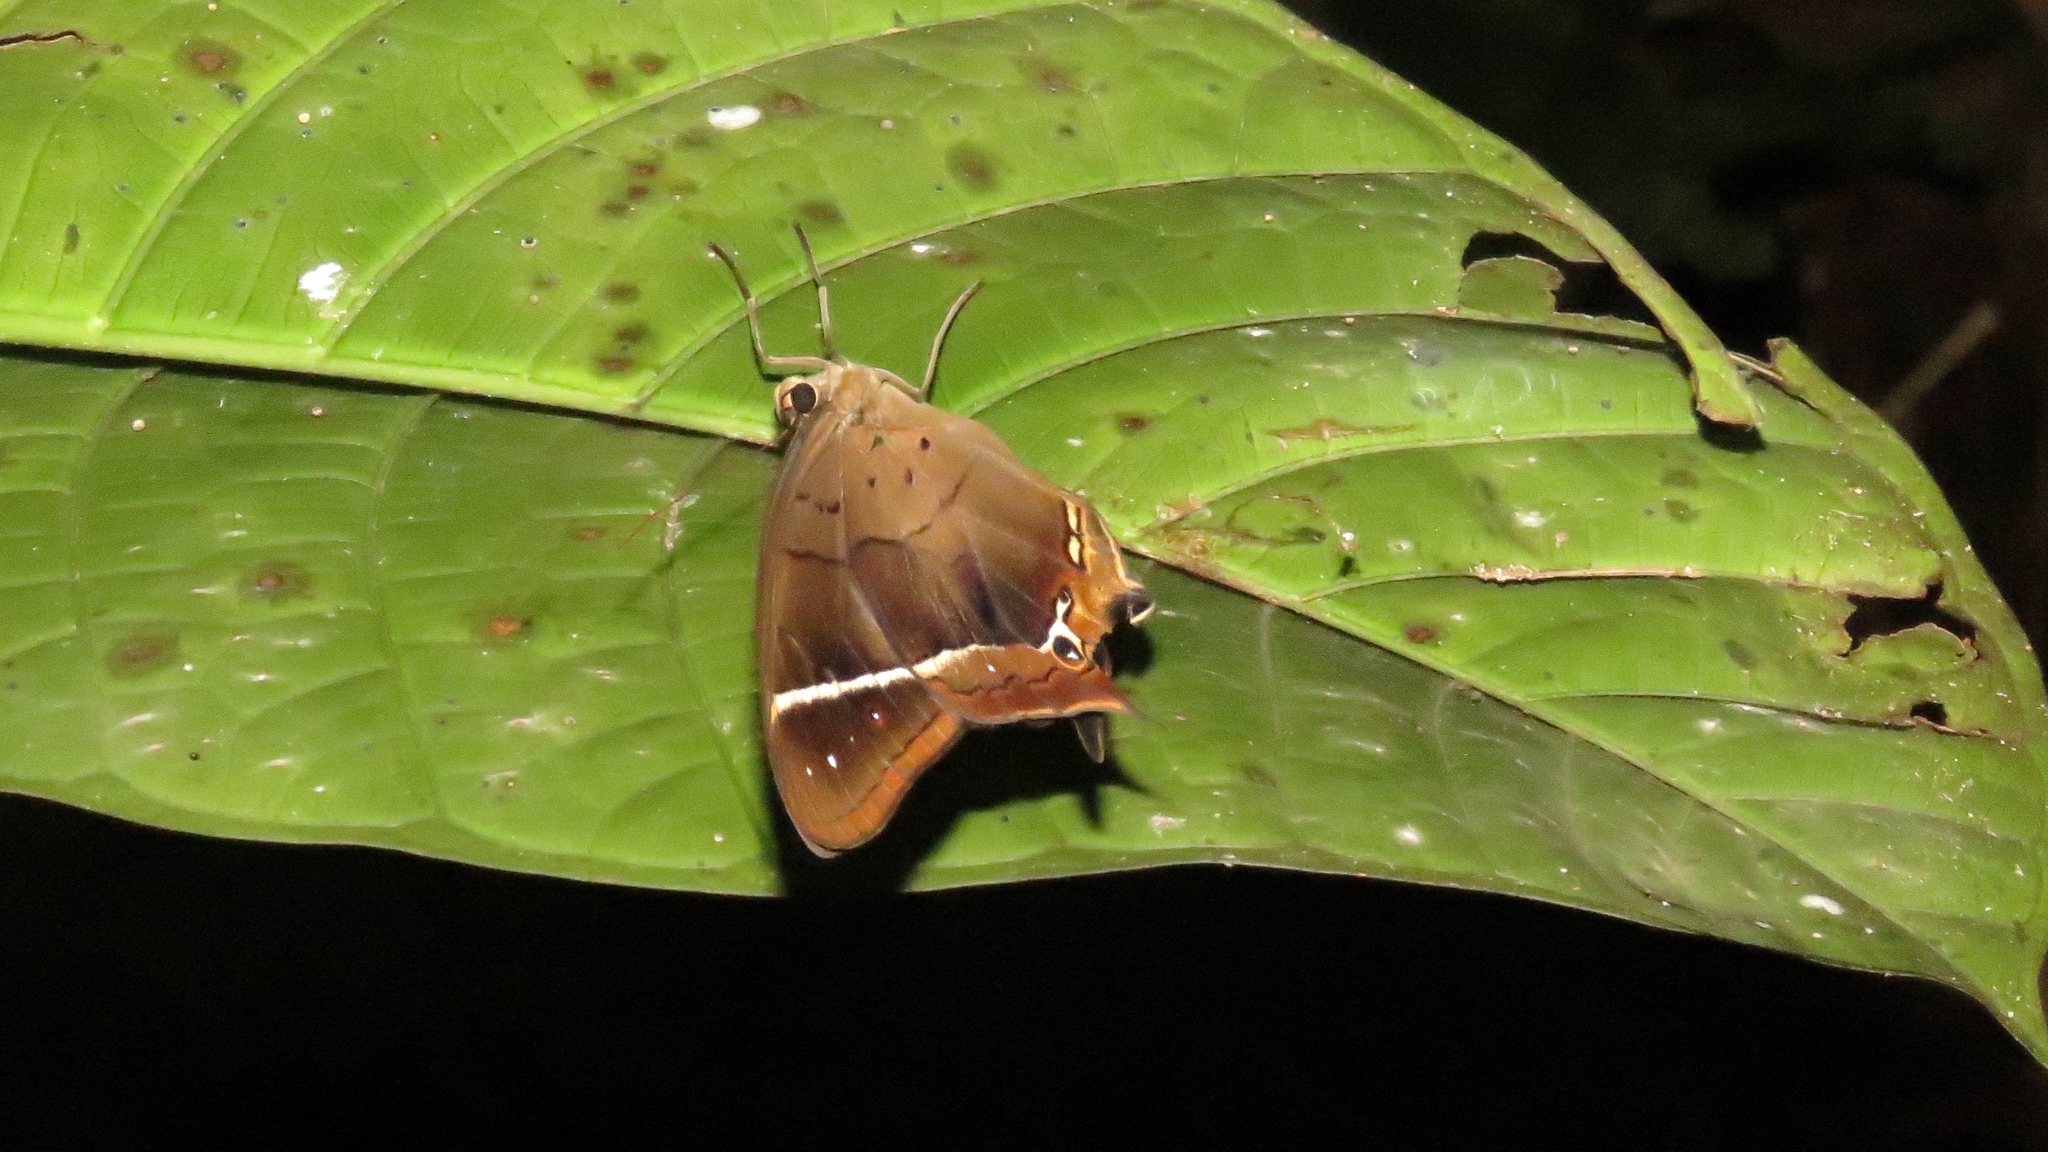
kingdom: Animalia
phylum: Arthropoda
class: Insecta
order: Lepidoptera
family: Nymphalidae
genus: Antirrhea
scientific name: Antirrhea philaretes
